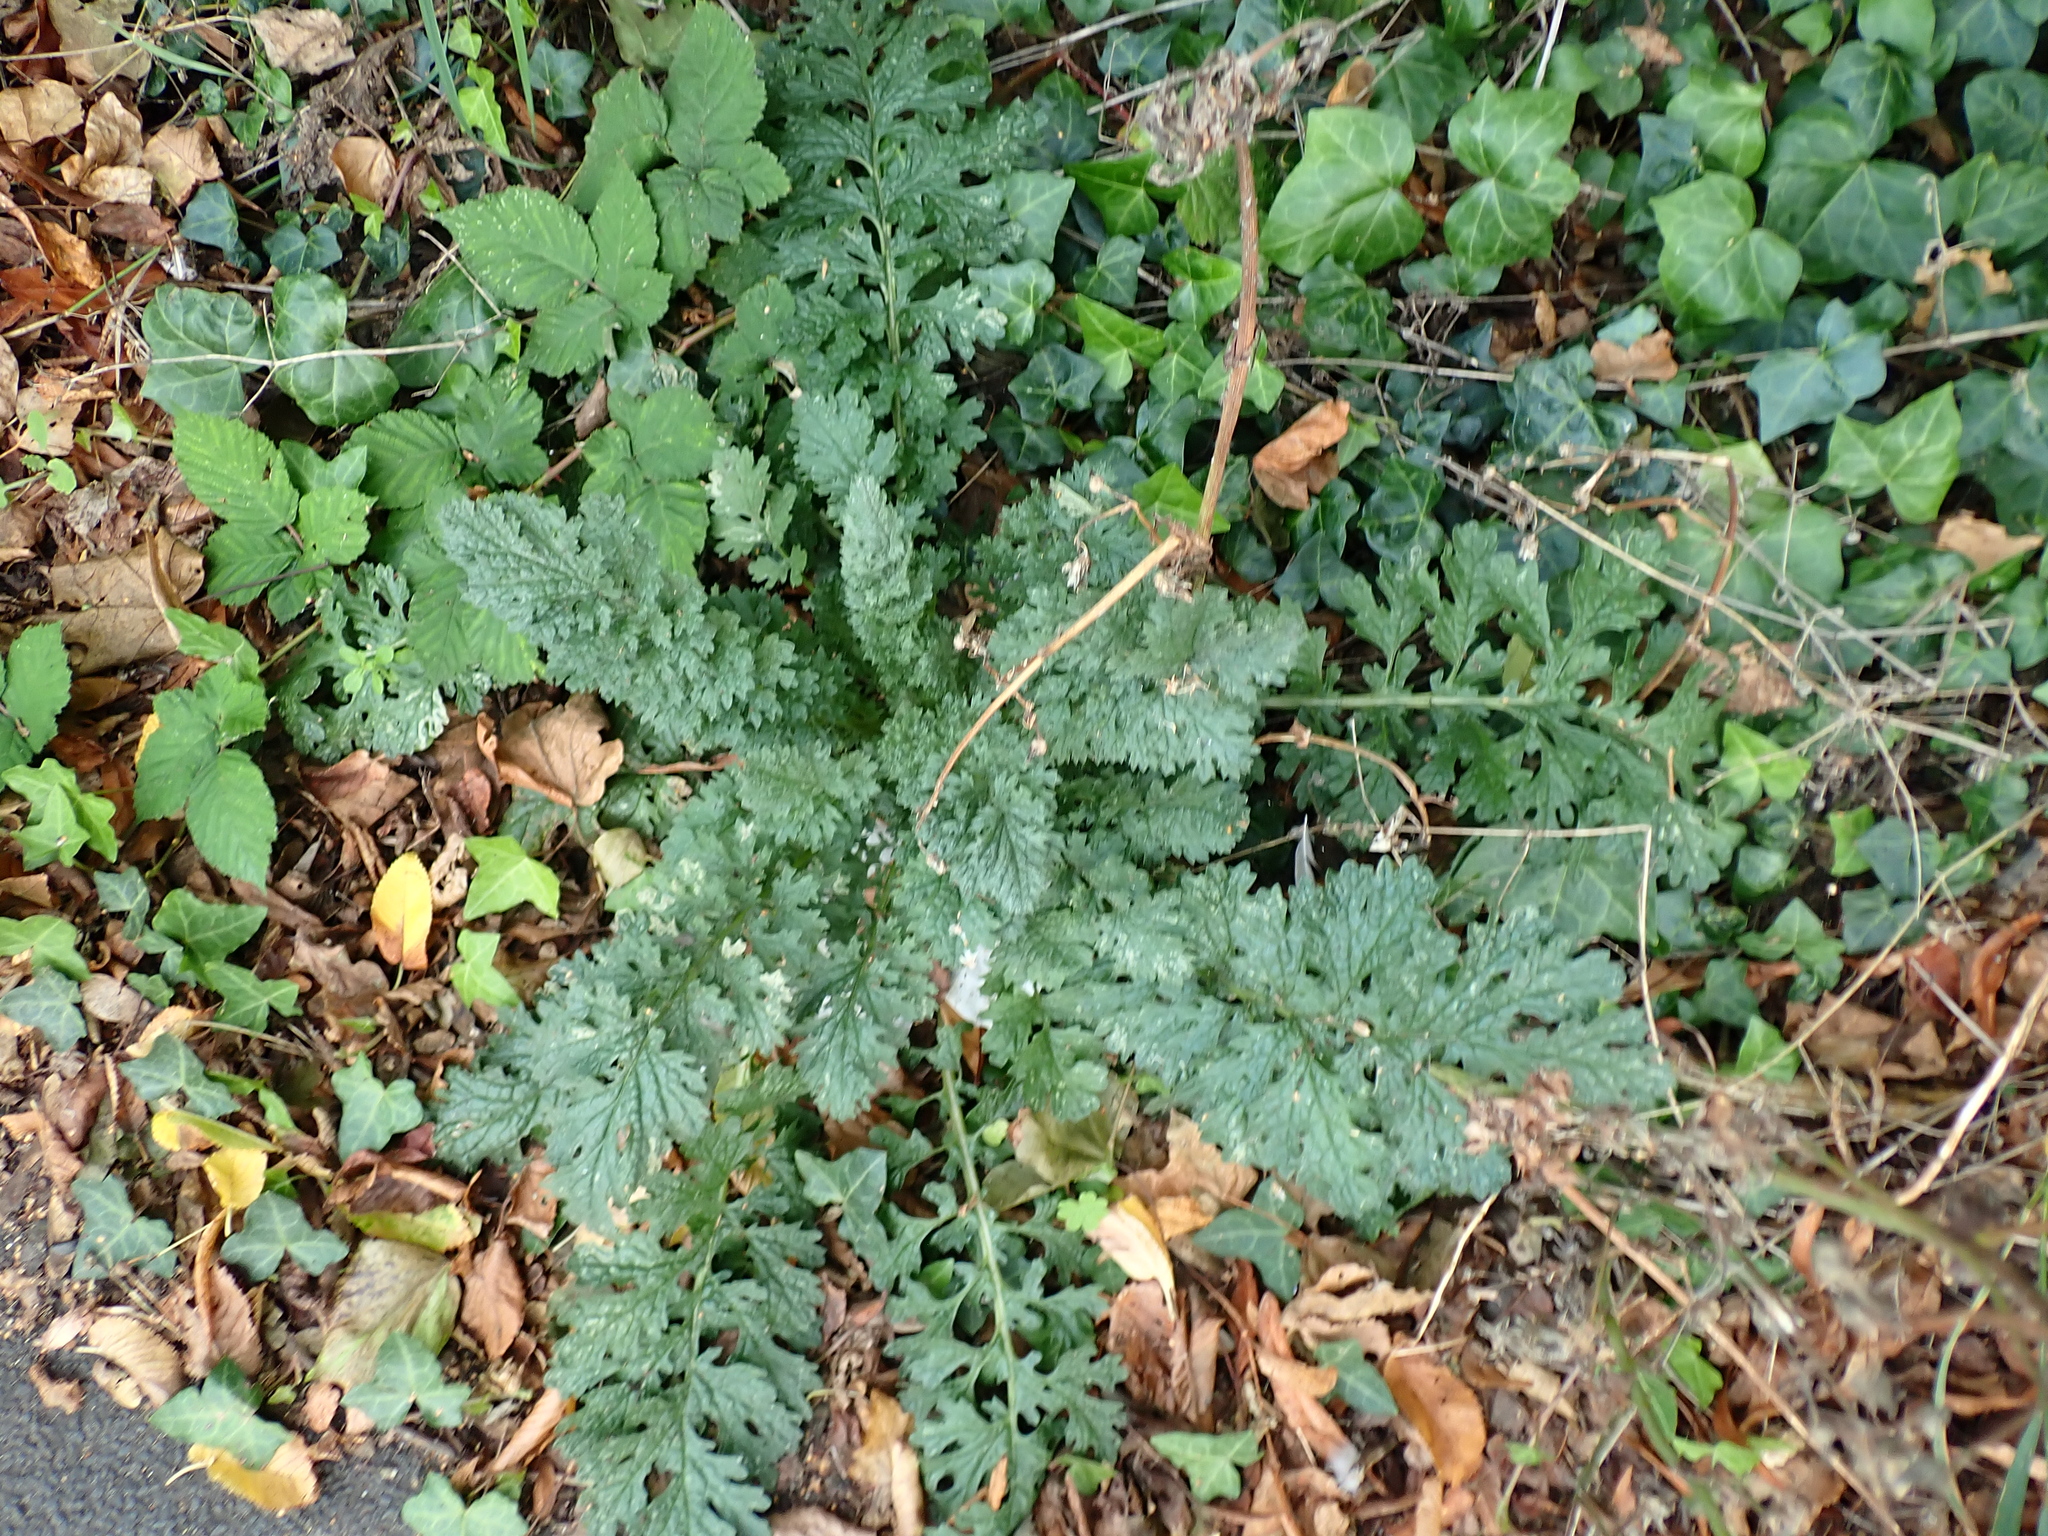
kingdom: Plantae
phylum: Tracheophyta
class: Magnoliopsida
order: Asterales
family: Asteraceae
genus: Jacobaea
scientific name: Jacobaea vulgaris
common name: Stinking willie
